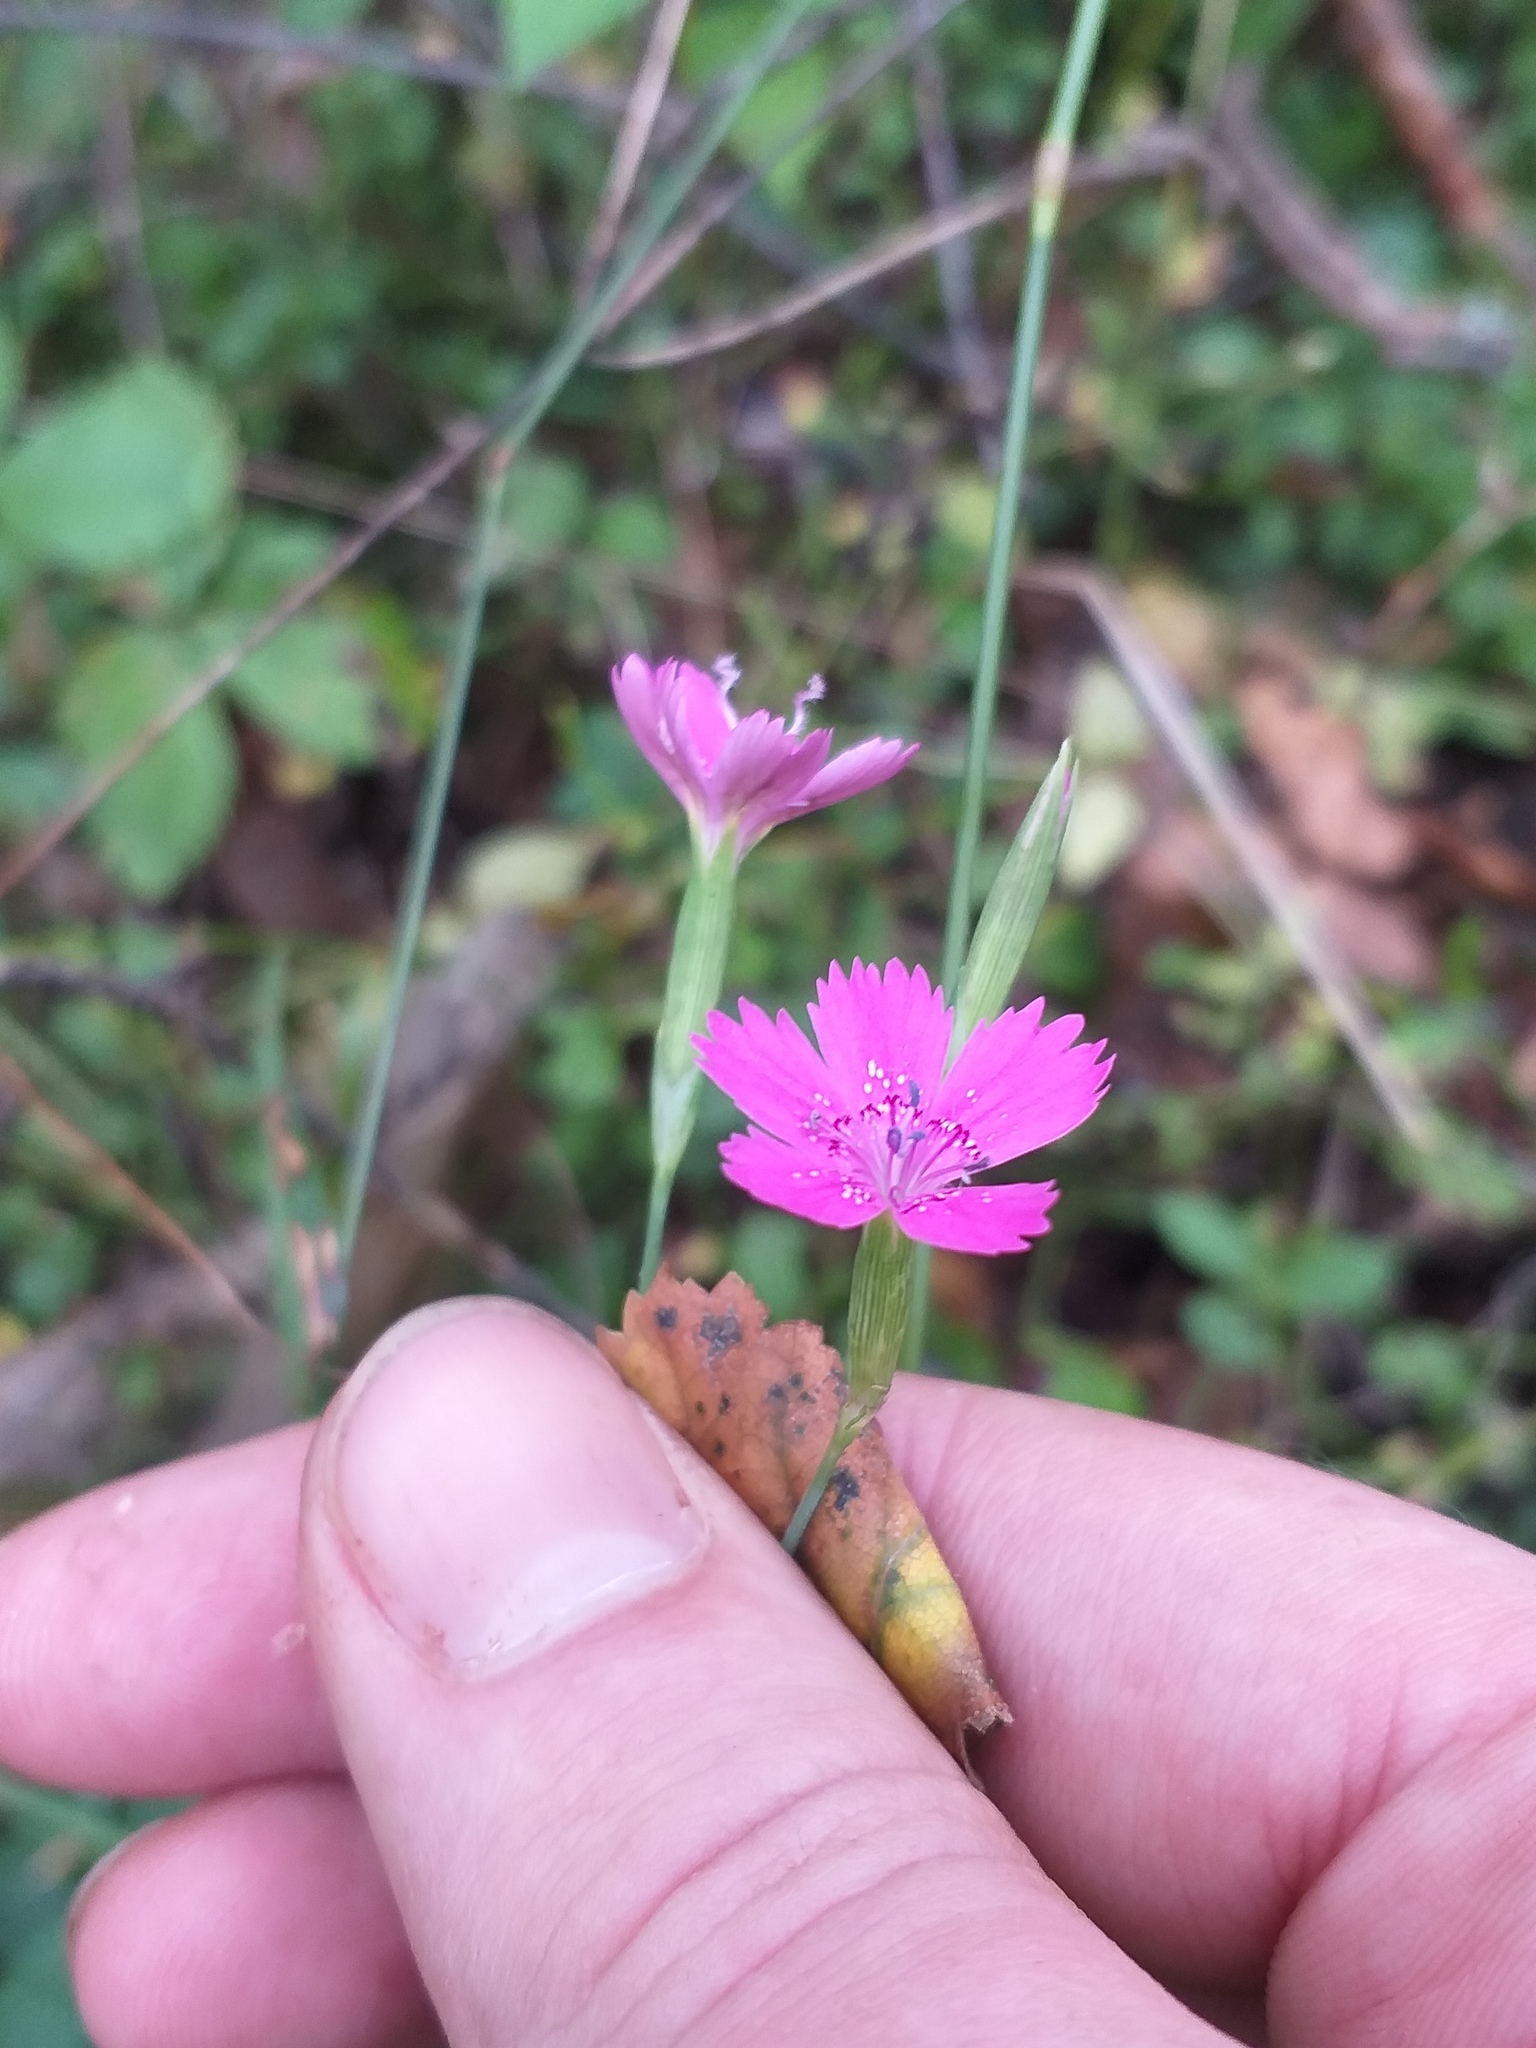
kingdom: Plantae
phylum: Tracheophyta
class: Magnoliopsida
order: Caryophyllales
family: Caryophyllaceae
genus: Dianthus
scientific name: Dianthus deltoides
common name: Maiden pink
